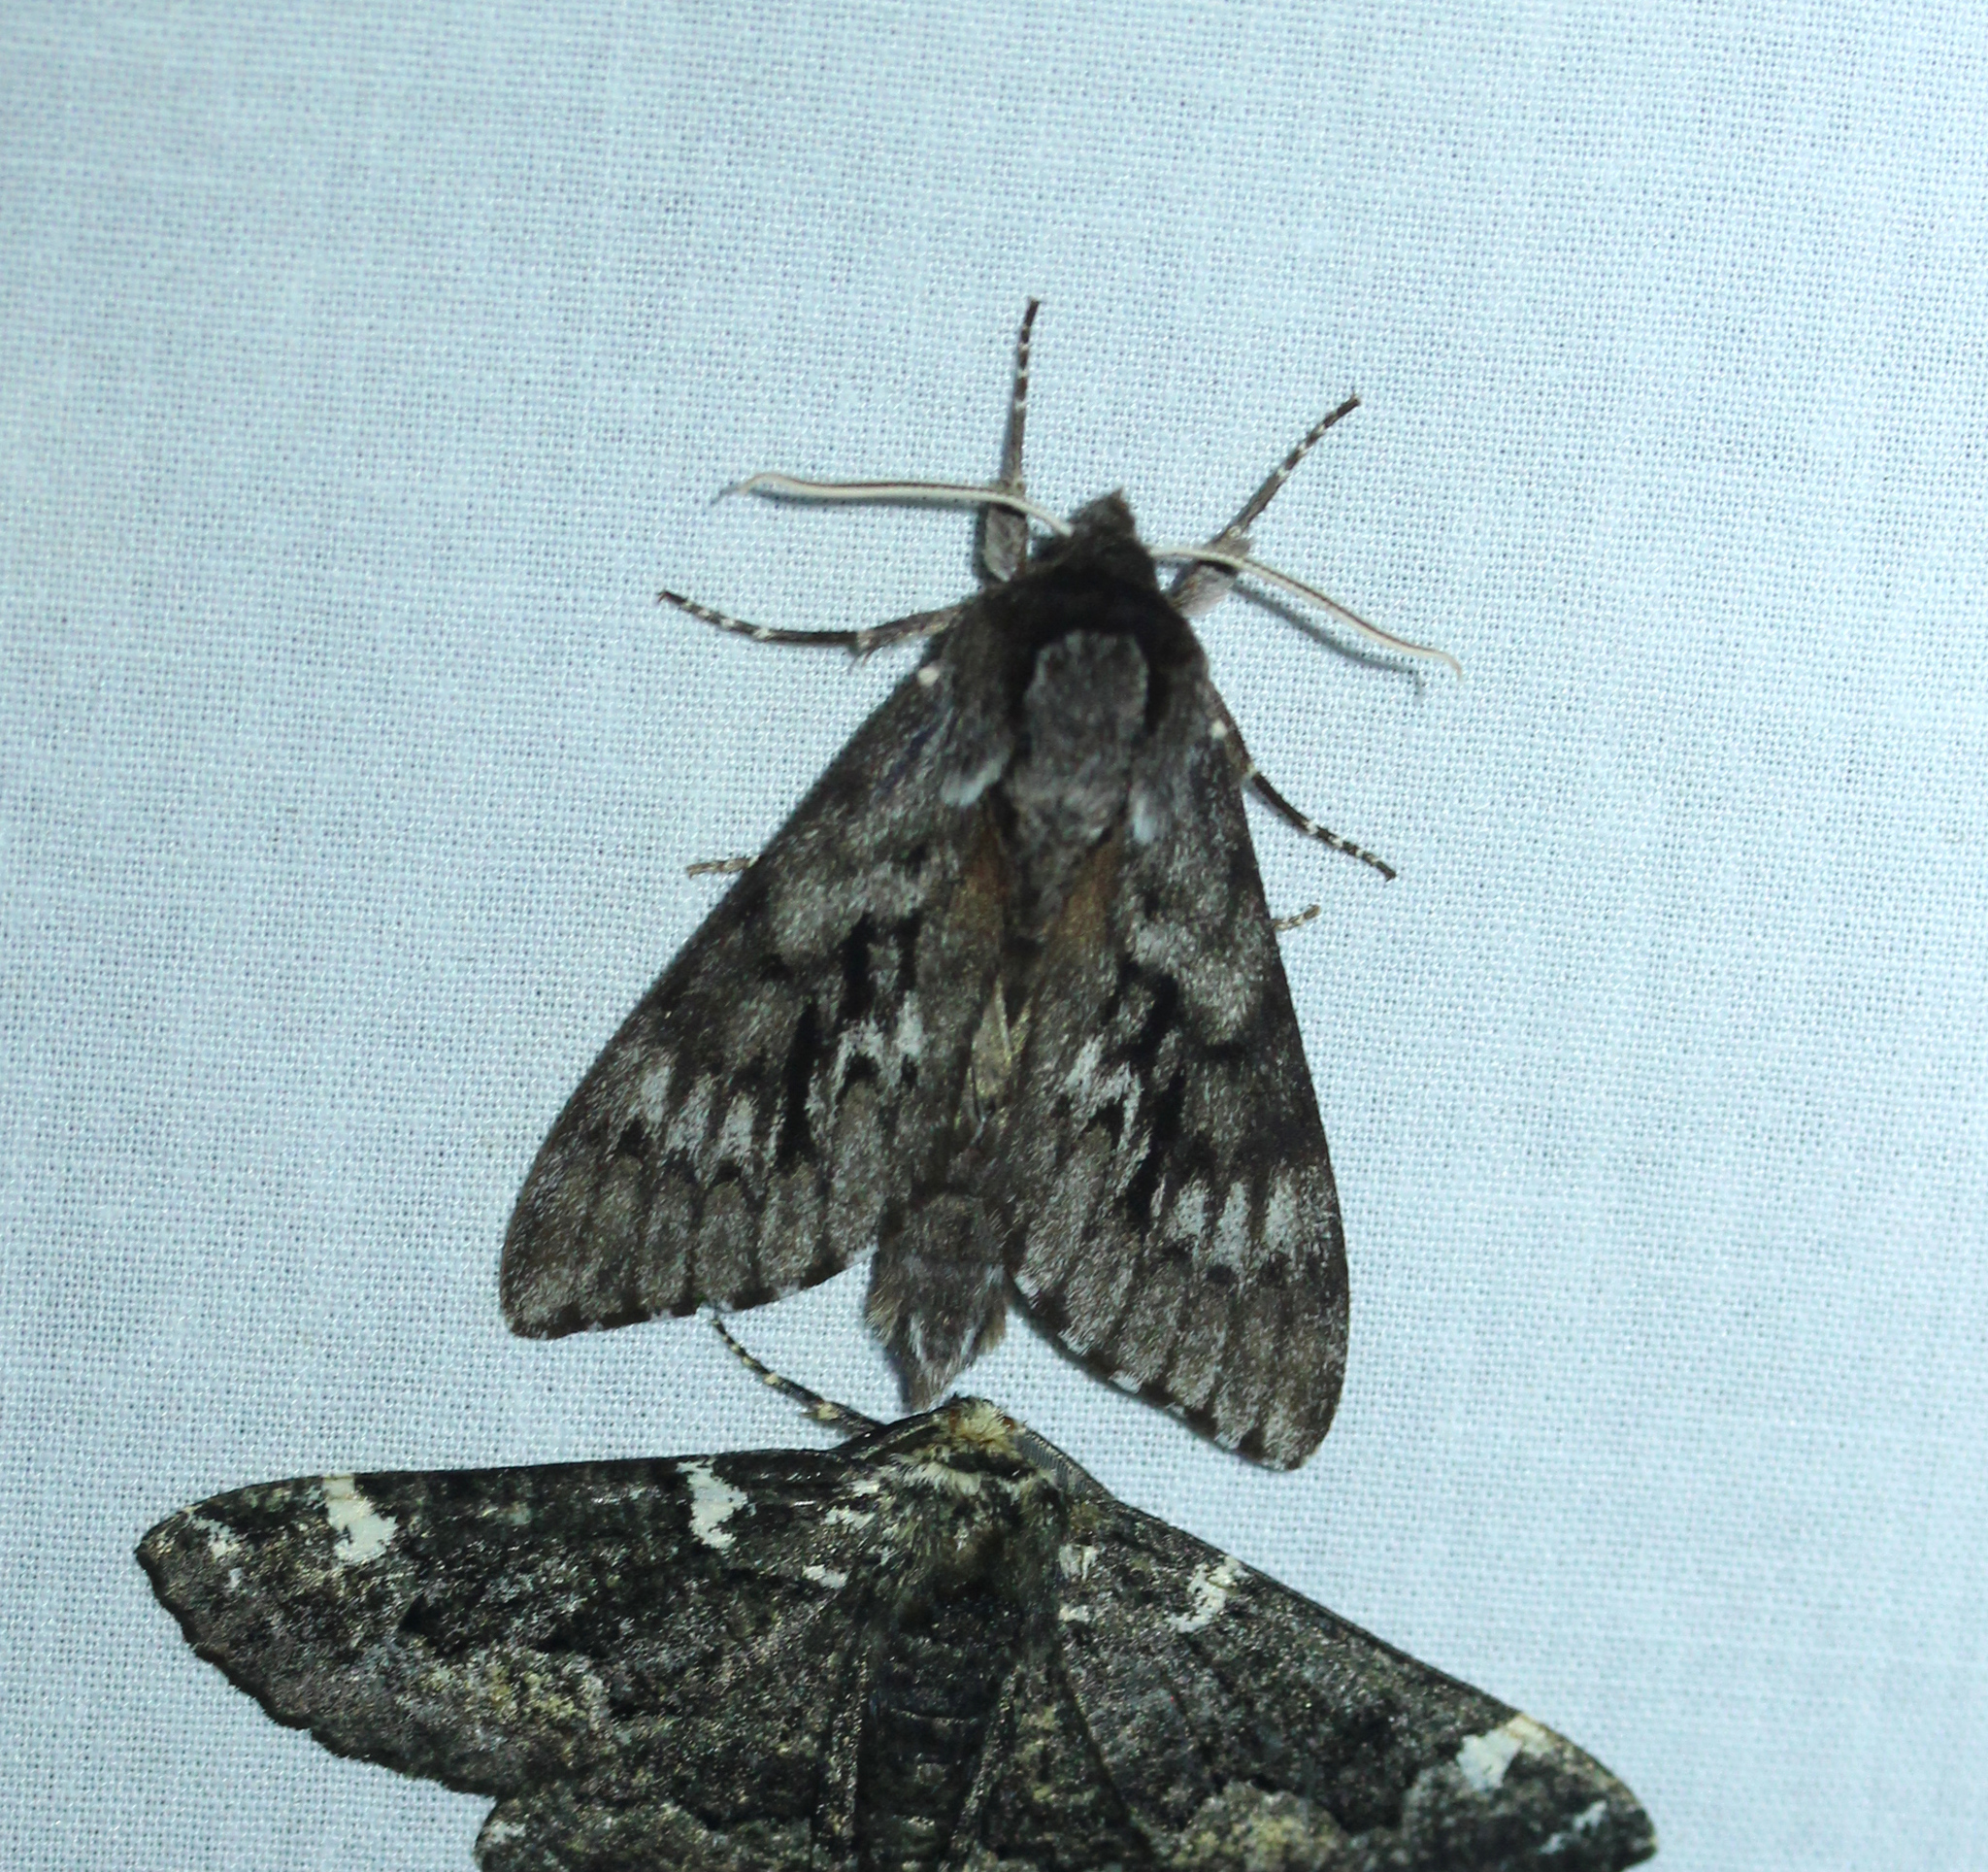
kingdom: Animalia
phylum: Arthropoda
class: Insecta
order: Lepidoptera
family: Sphingidae
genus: Lapara
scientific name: Lapara bombycoides
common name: Northern pine sphinx
